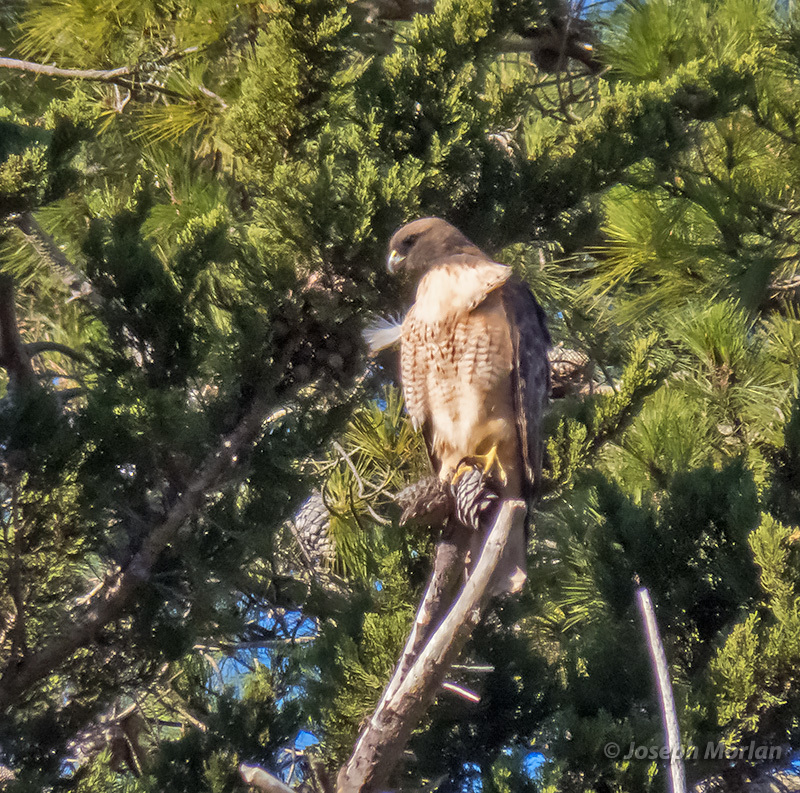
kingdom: Animalia
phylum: Chordata
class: Aves
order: Accipitriformes
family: Accipitridae
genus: Buteo
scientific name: Buteo jamaicensis
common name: Red-tailed hawk
